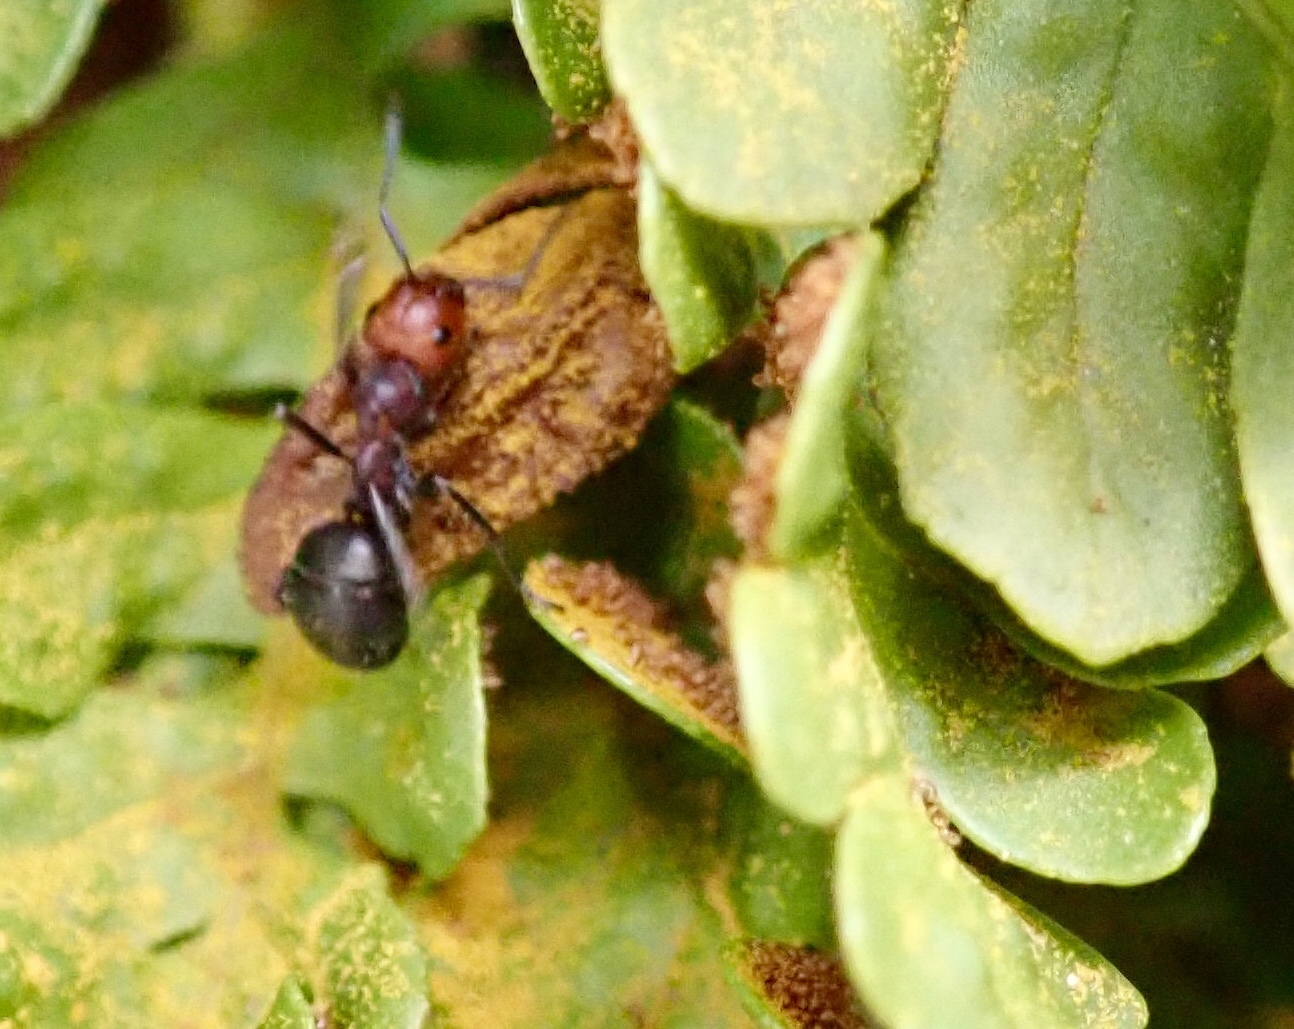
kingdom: Animalia
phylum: Arthropoda
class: Insecta
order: Hymenoptera
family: Formicidae
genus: Formica
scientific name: Formica obscuripes
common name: Western thatching ant
